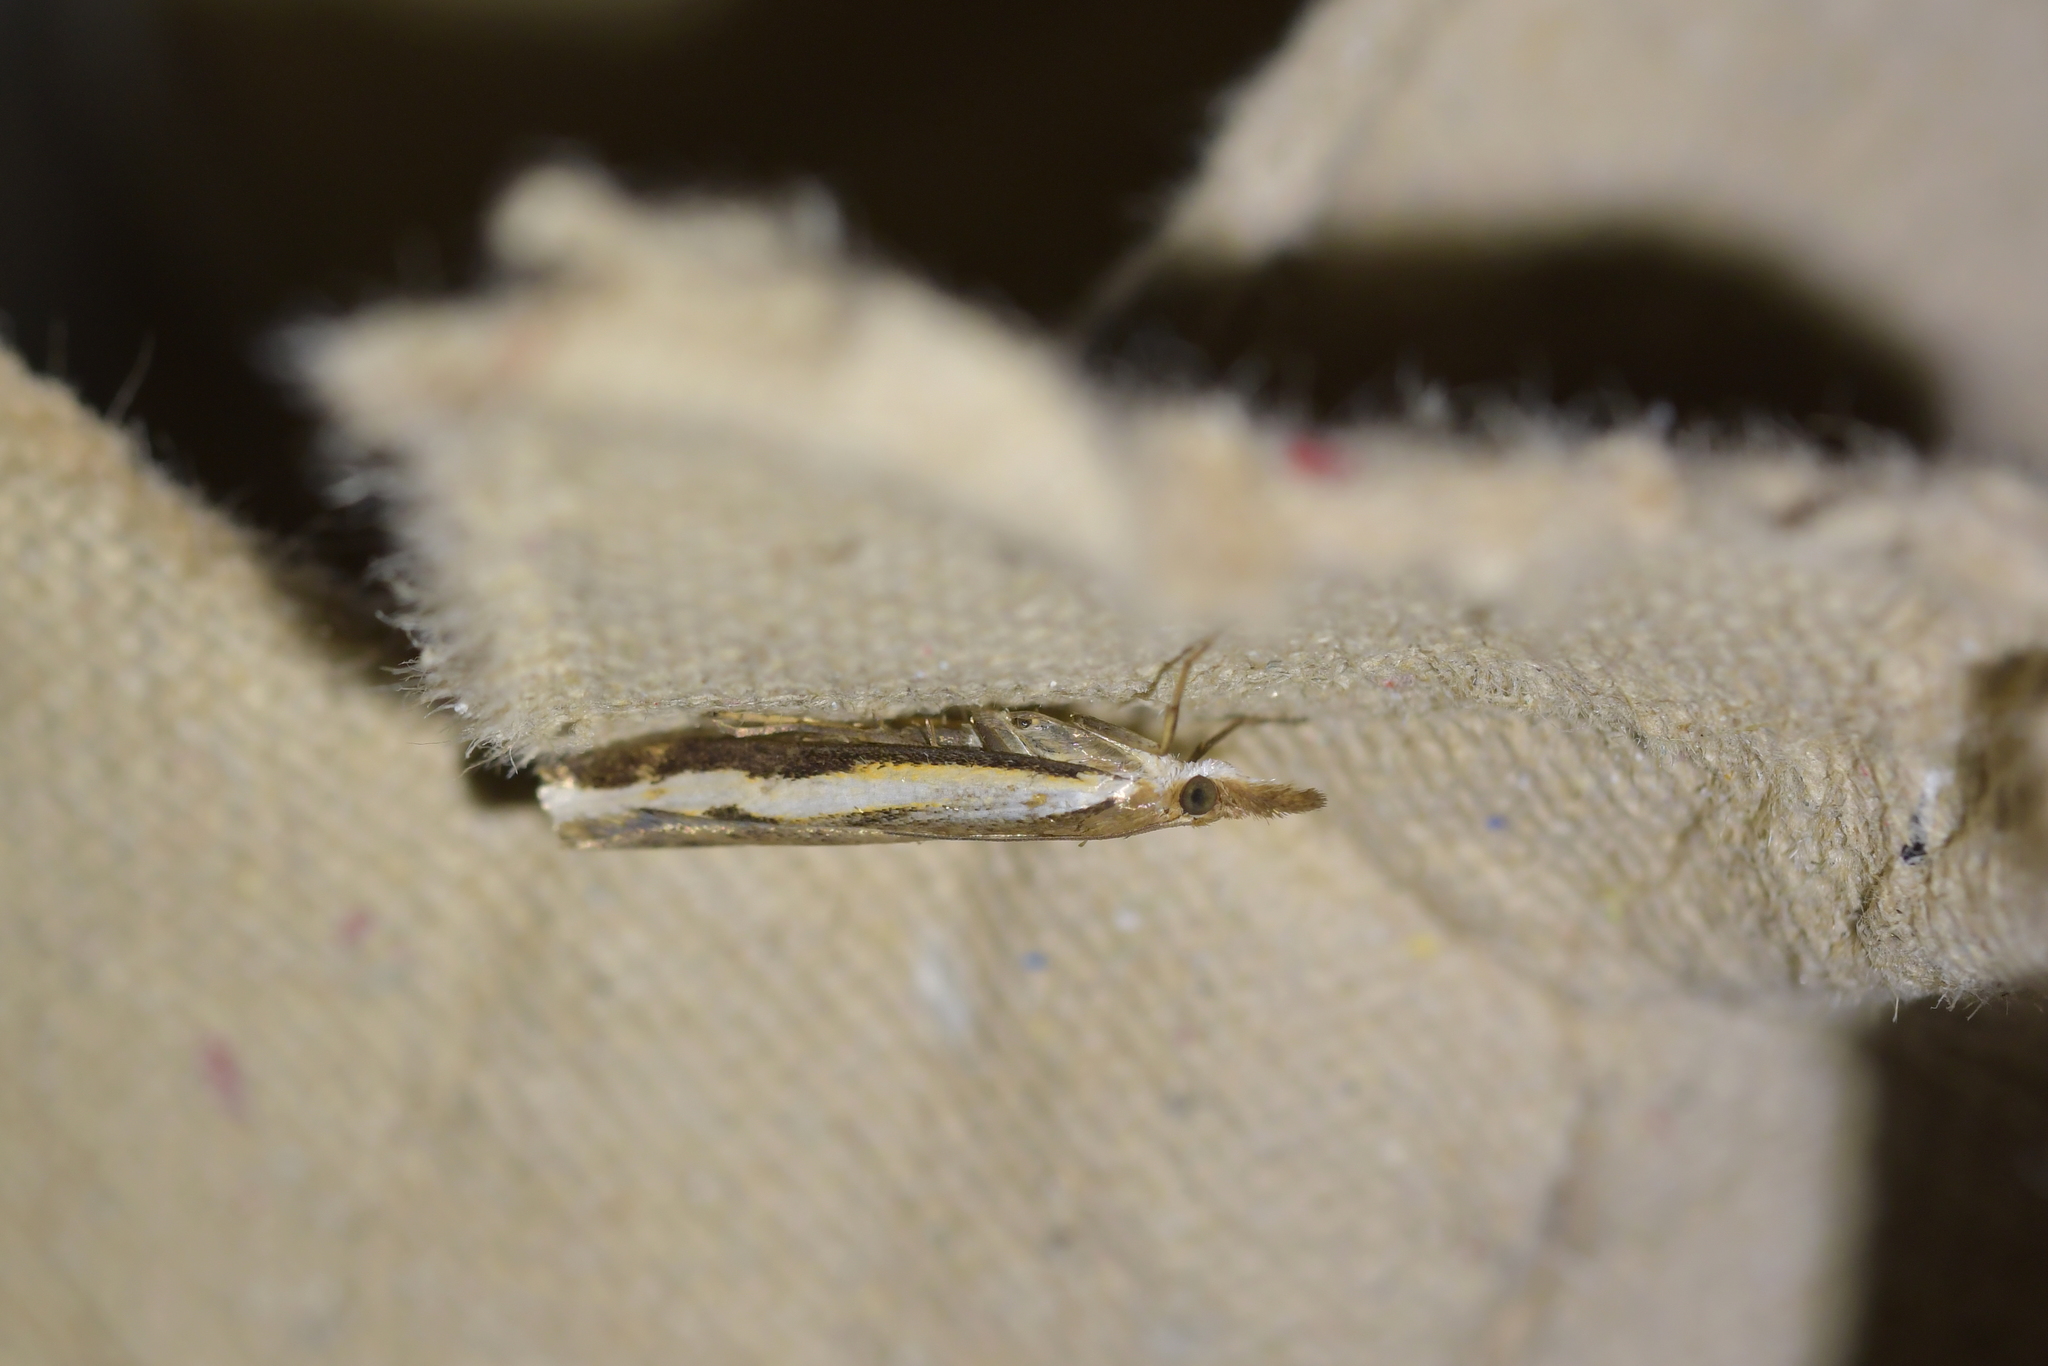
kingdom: Animalia
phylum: Arthropoda
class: Insecta
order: Lepidoptera
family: Crambidae
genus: Orocrambus
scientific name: Orocrambus flexuosellus
